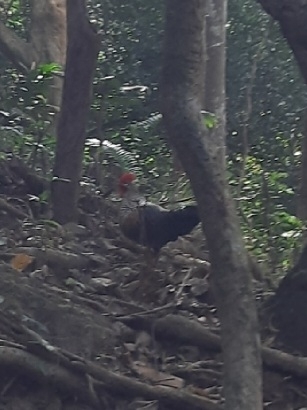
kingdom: Animalia
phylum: Chordata
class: Aves
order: Galliformes
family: Phasianidae
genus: Gallus
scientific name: Gallus sonneratii
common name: Grey junglefowl
